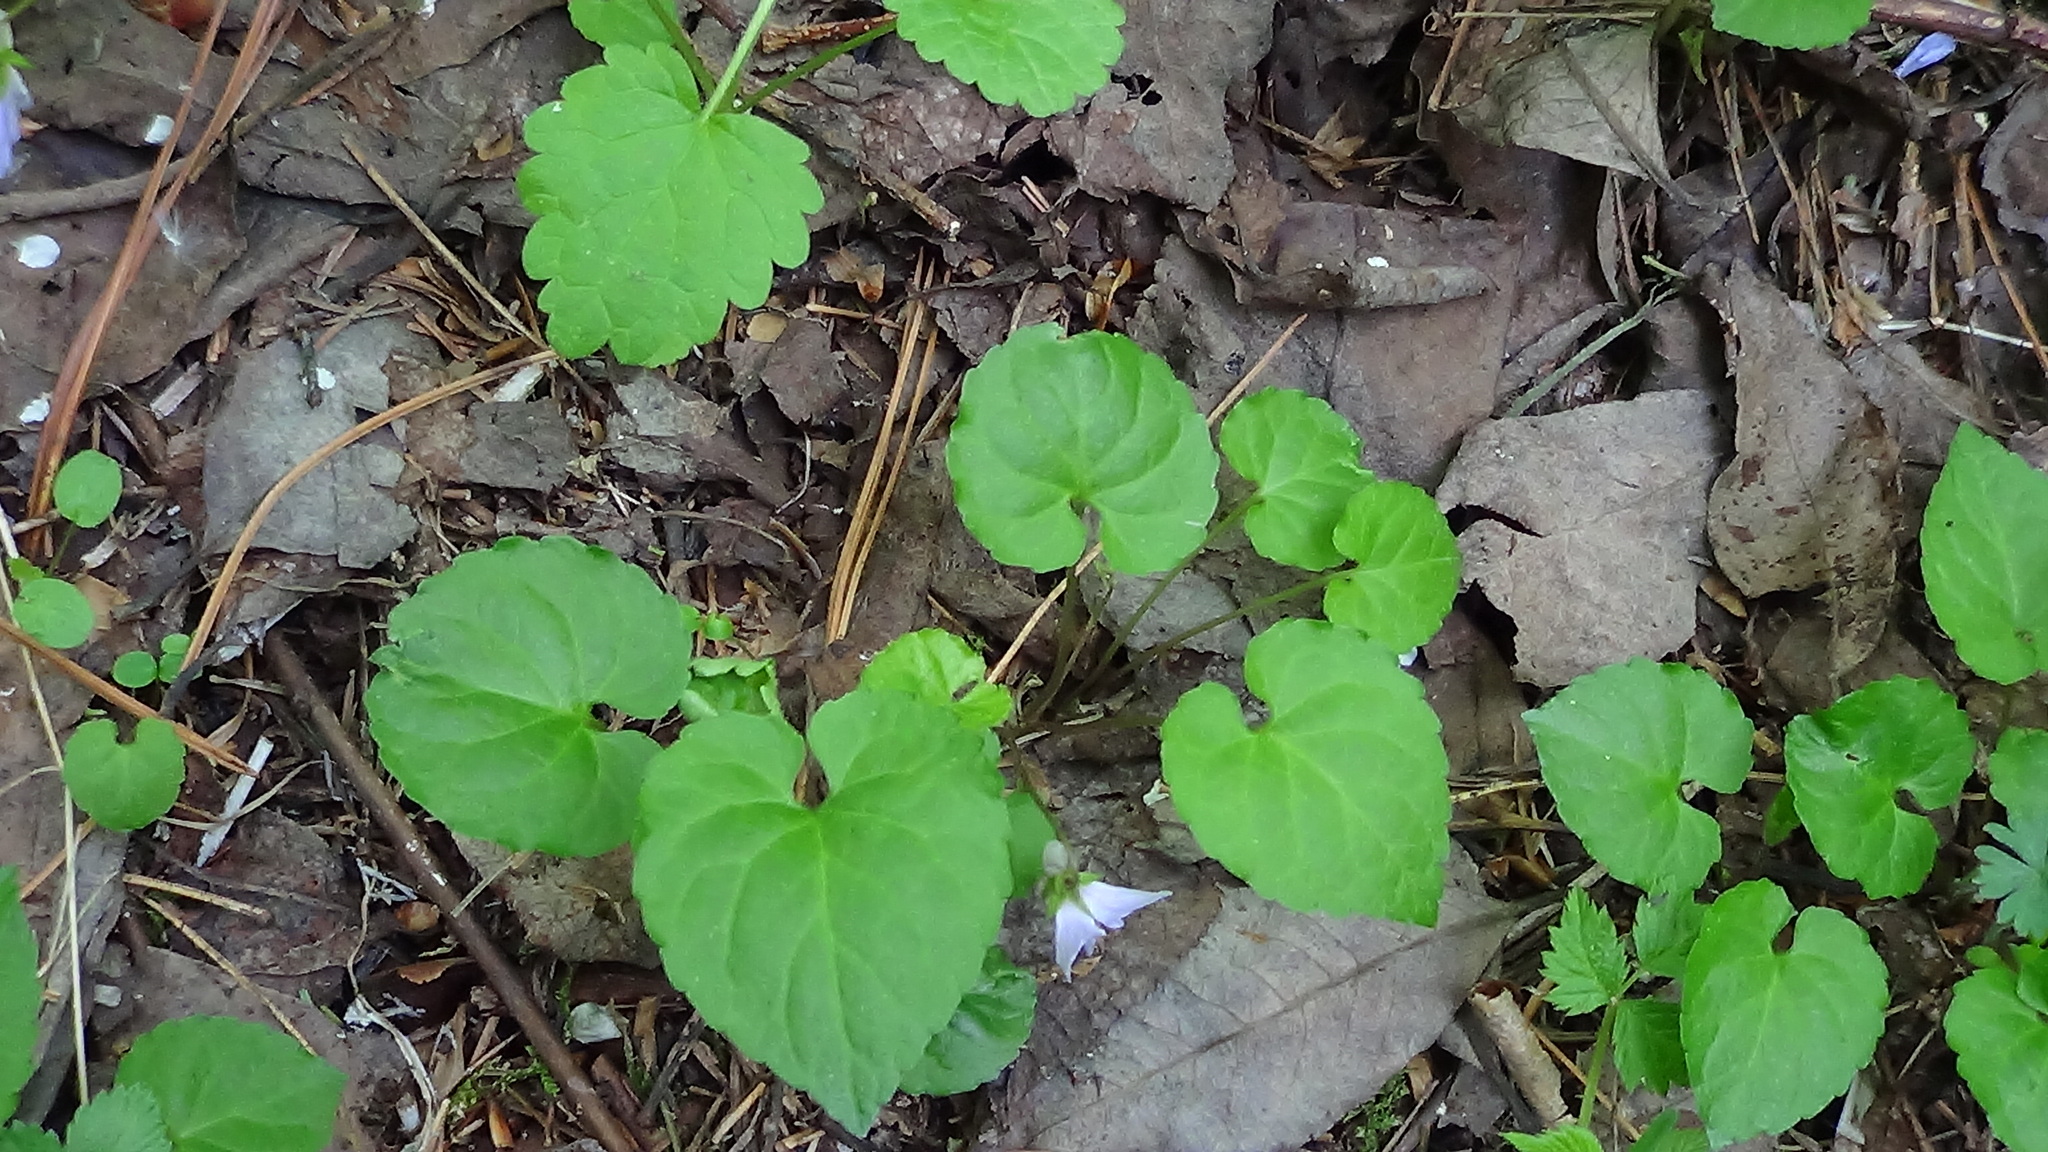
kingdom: Plantae
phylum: Tracheophyta
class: Magnoliopsida
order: Malpighiales
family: Violaceae
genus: Viola
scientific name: Viola selkirkii
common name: Selkirk's violet
